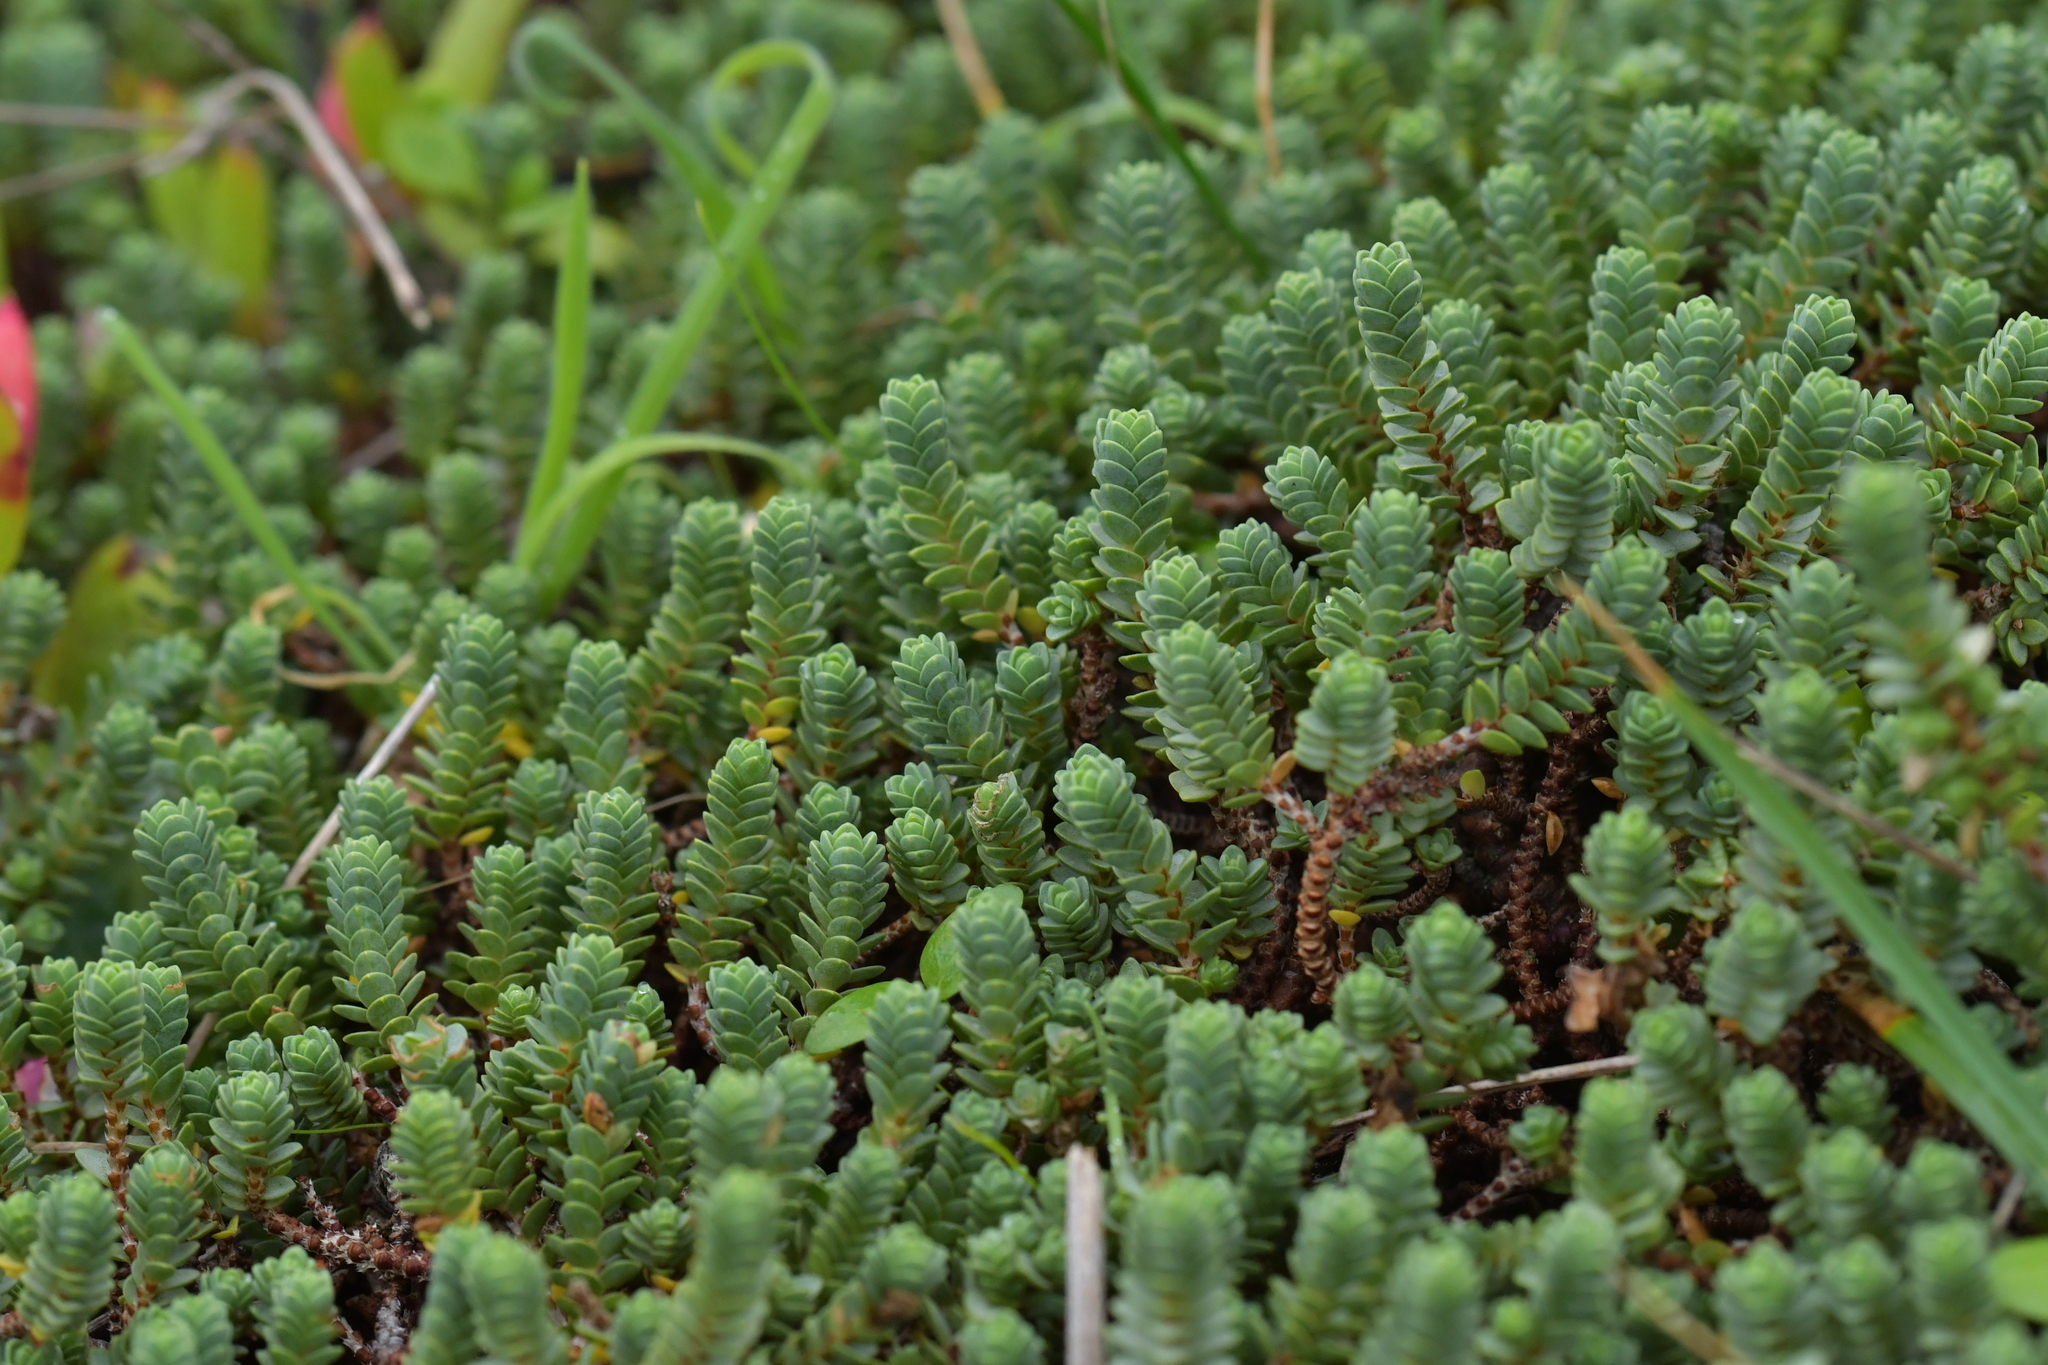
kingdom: Plantae
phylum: Tracheophyta
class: Magnoliopsida
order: Malvales
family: Thymelaeaceae
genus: Pimelea
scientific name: Pimelea carnosa
